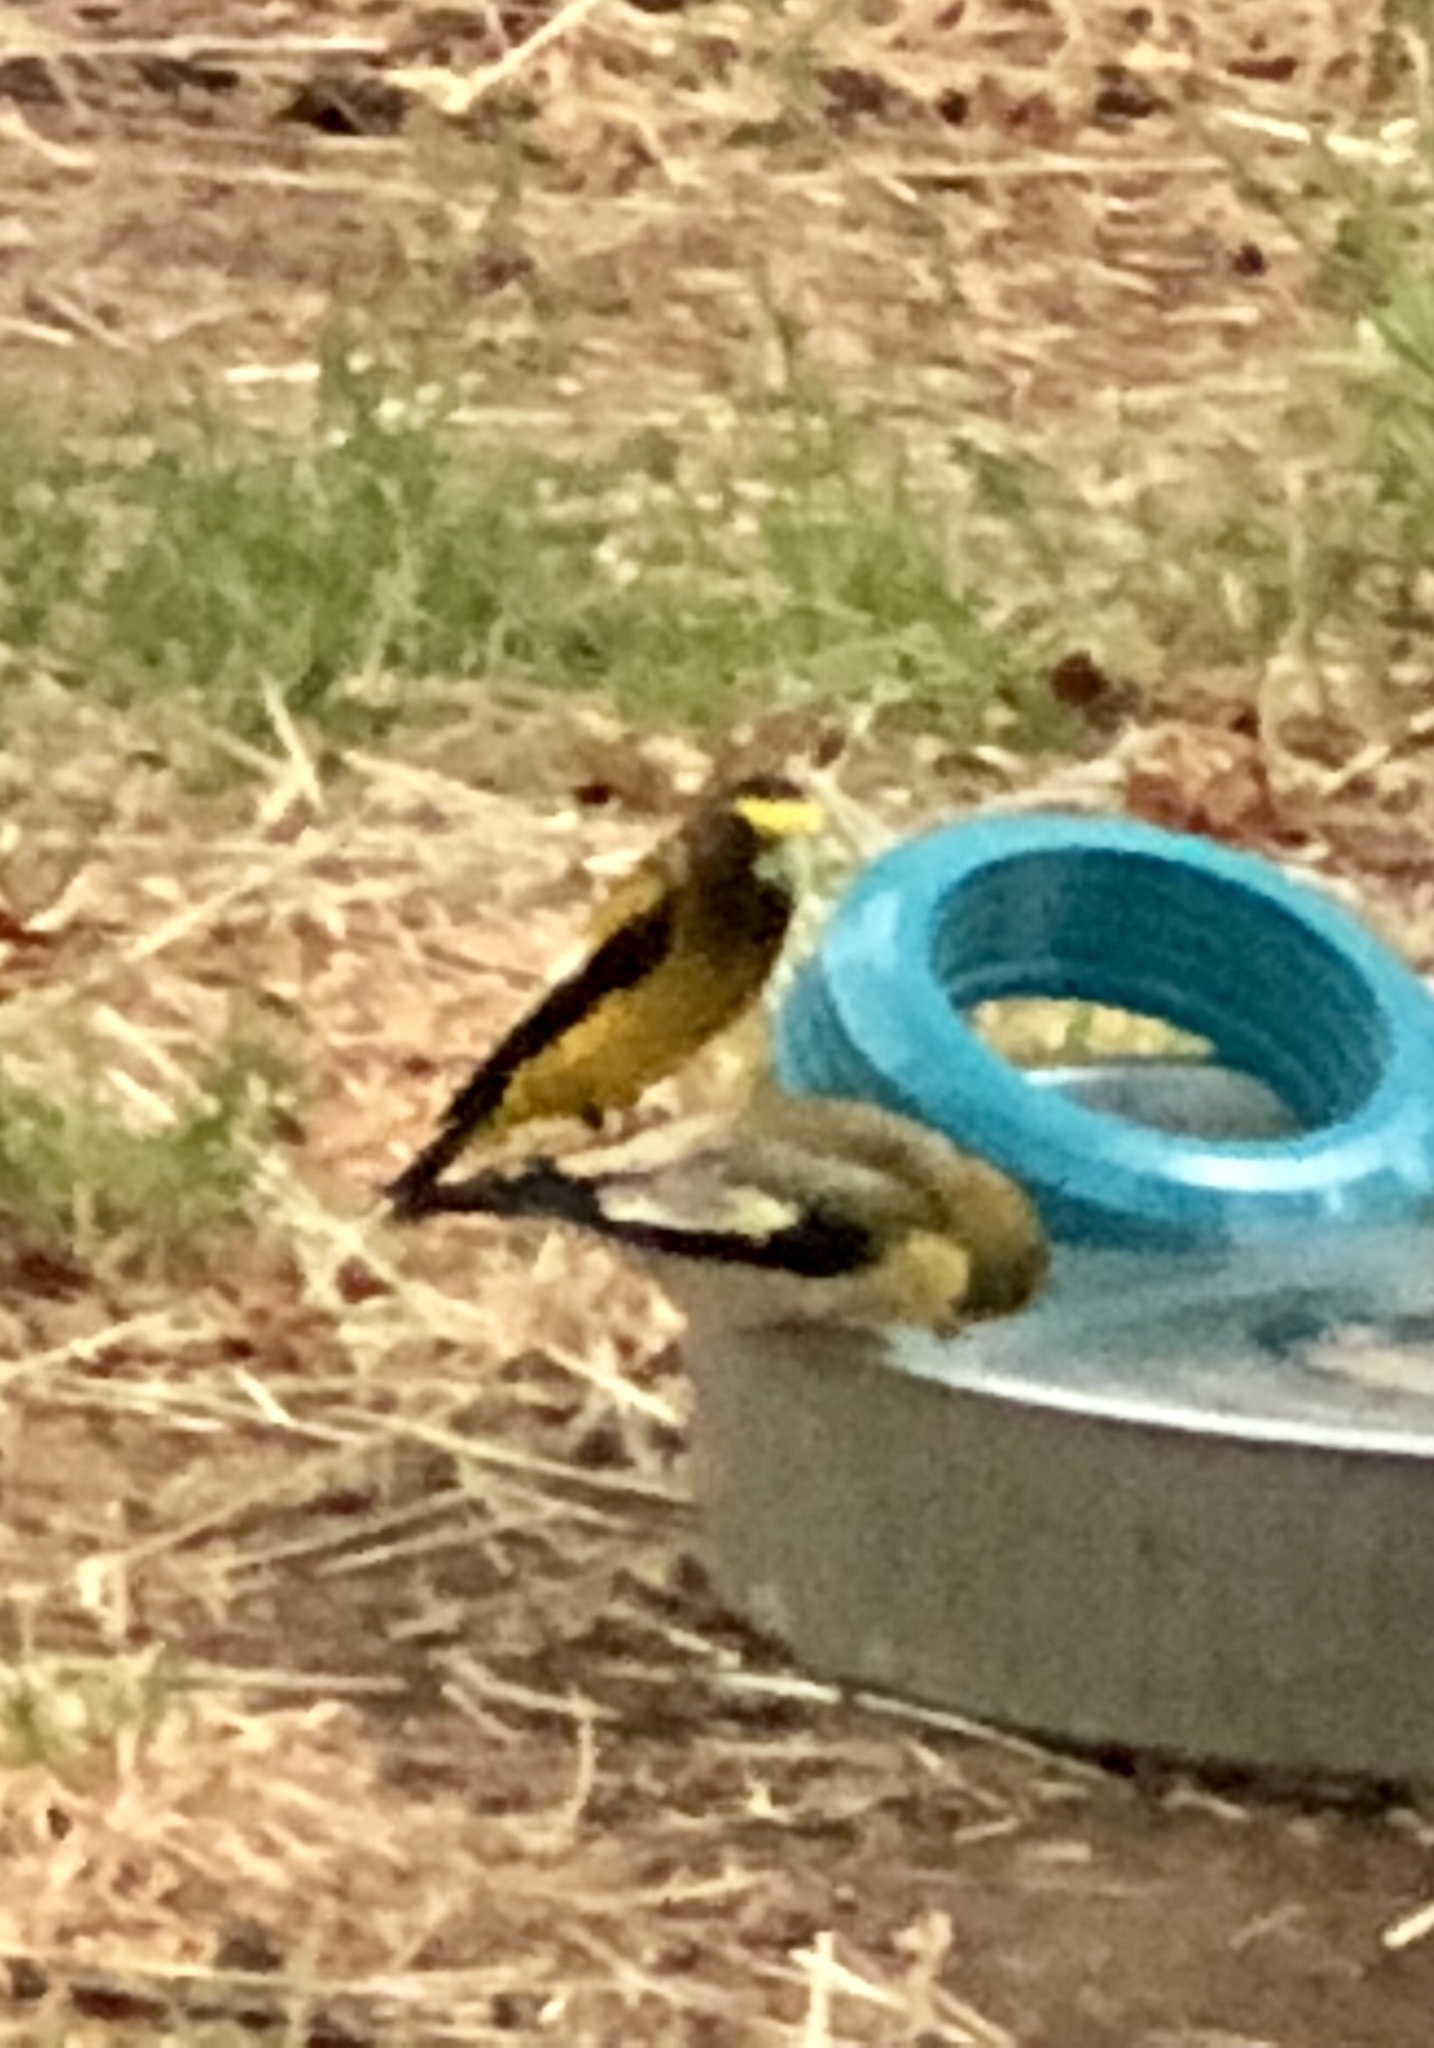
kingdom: Animalia
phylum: Chordata
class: Aves
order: Passeriformes
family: Fringillidae
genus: Hesperiphona
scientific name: Hesperiphona vespertina
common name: Evening grosbeak
